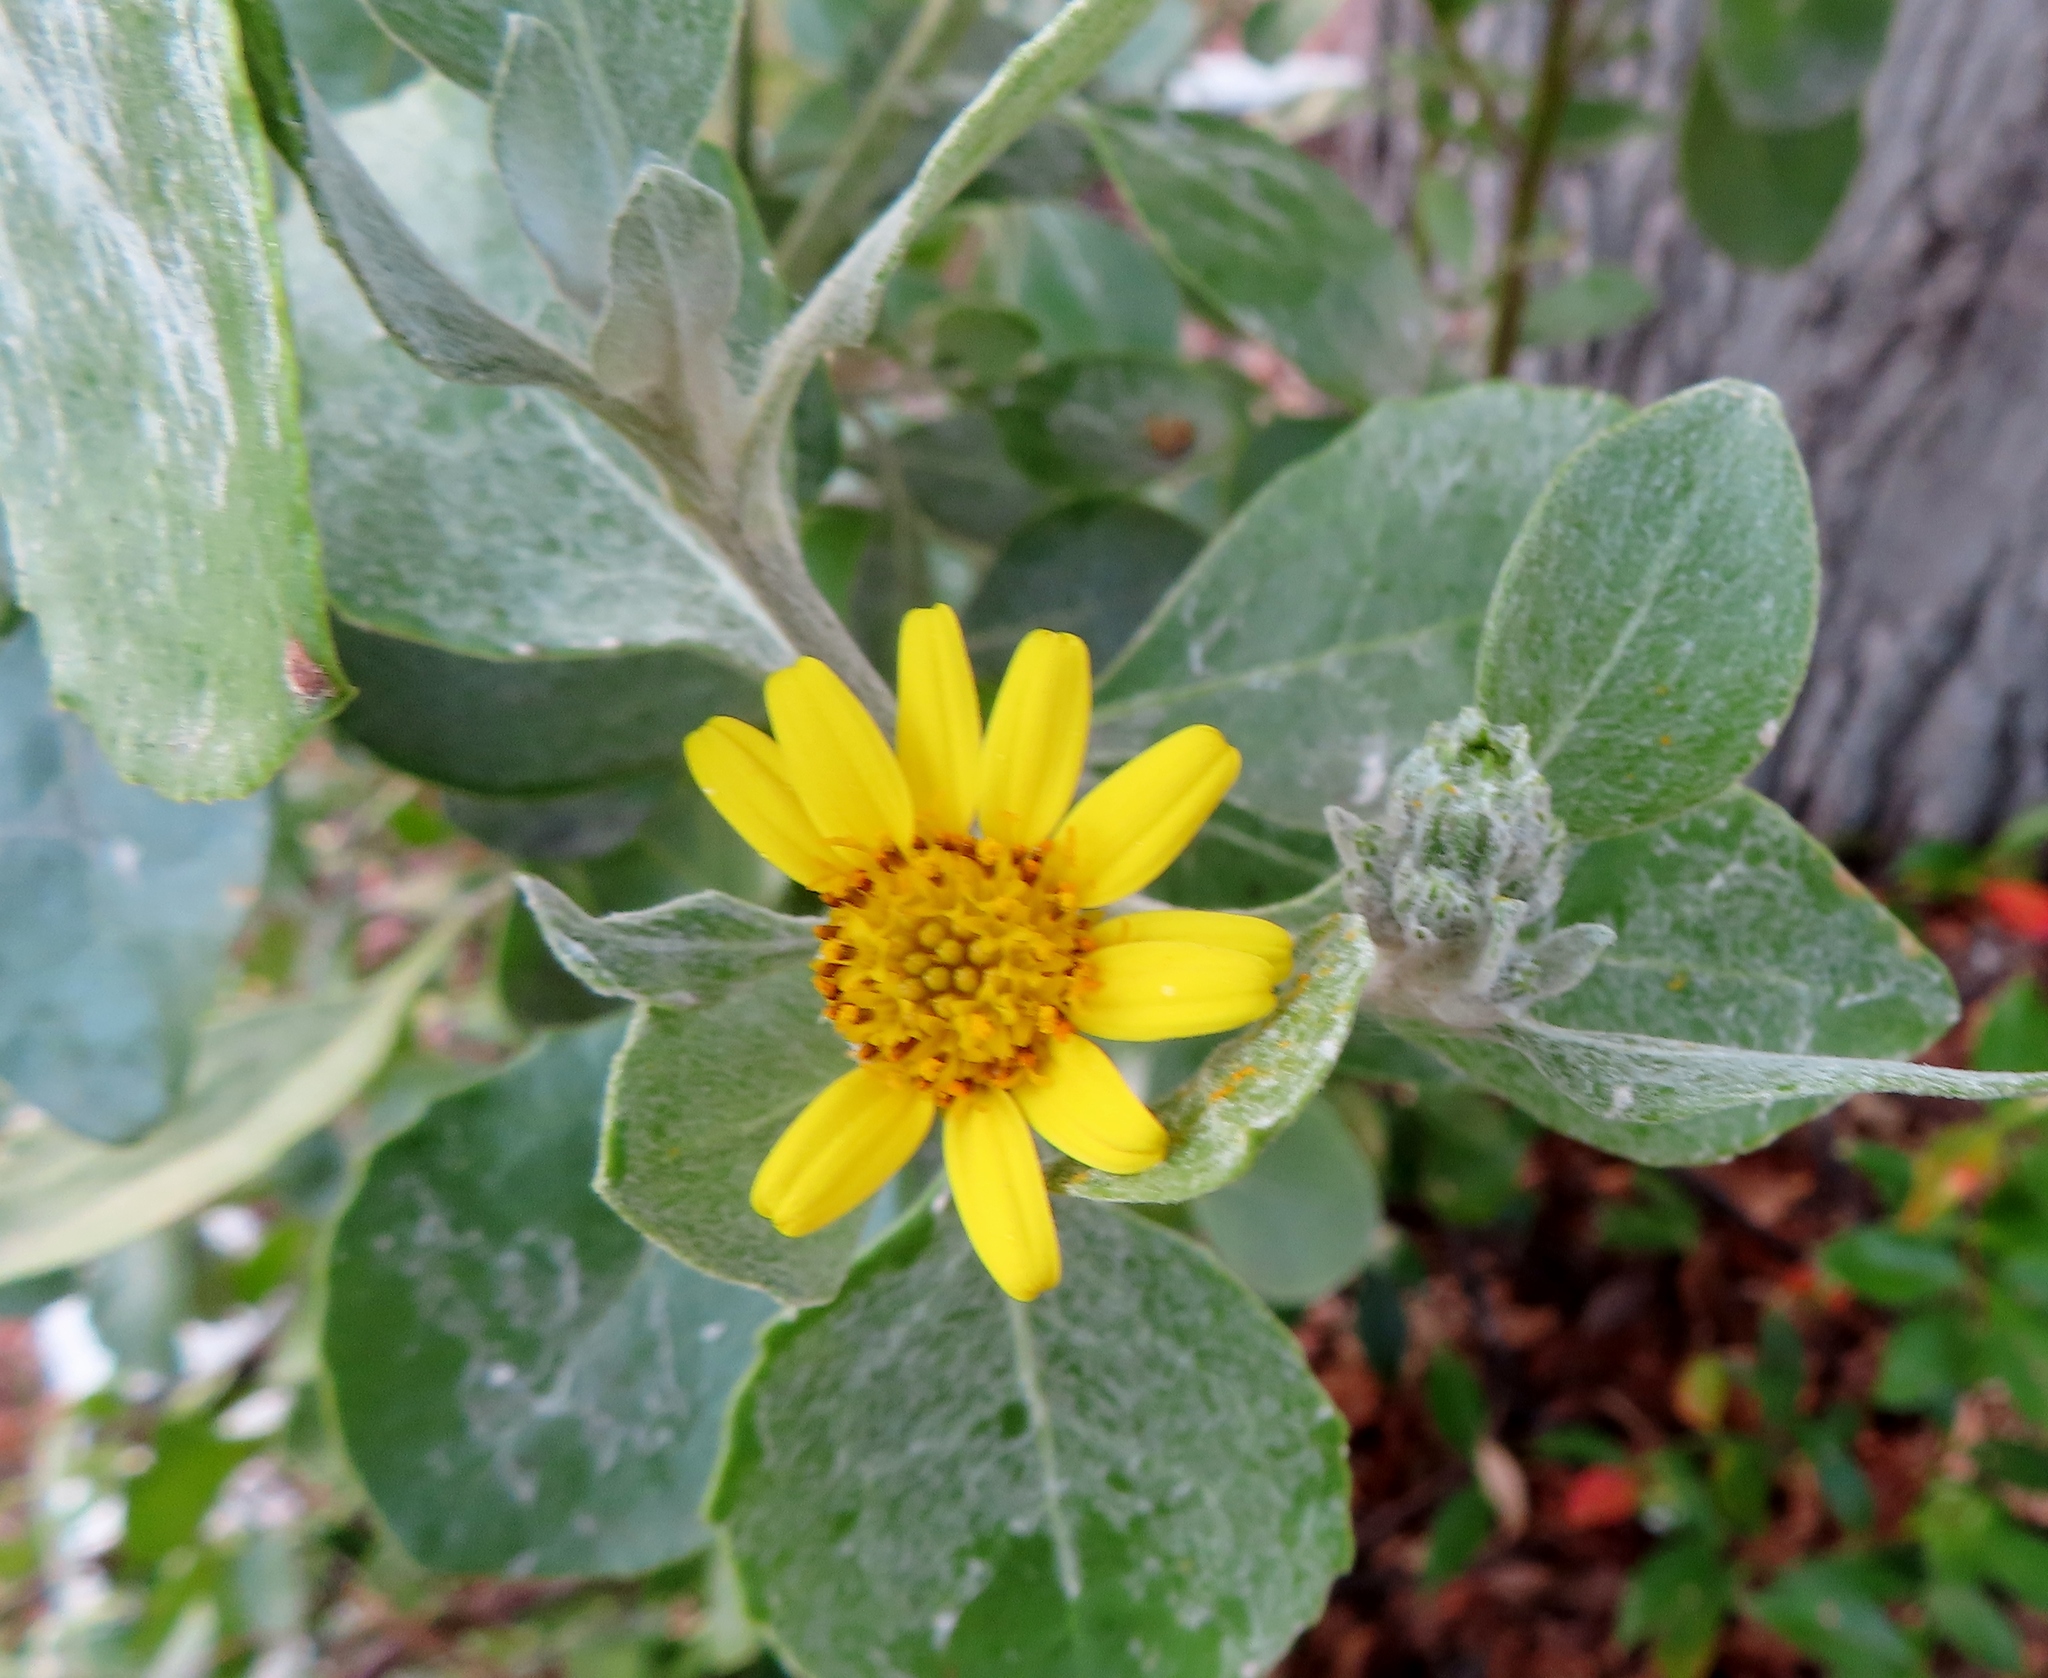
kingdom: Plantae
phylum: Tracheophyta
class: Magnoliopsida
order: Asterales
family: Asteraceae
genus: Osteospermum
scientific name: Osteospermum moniliferum
